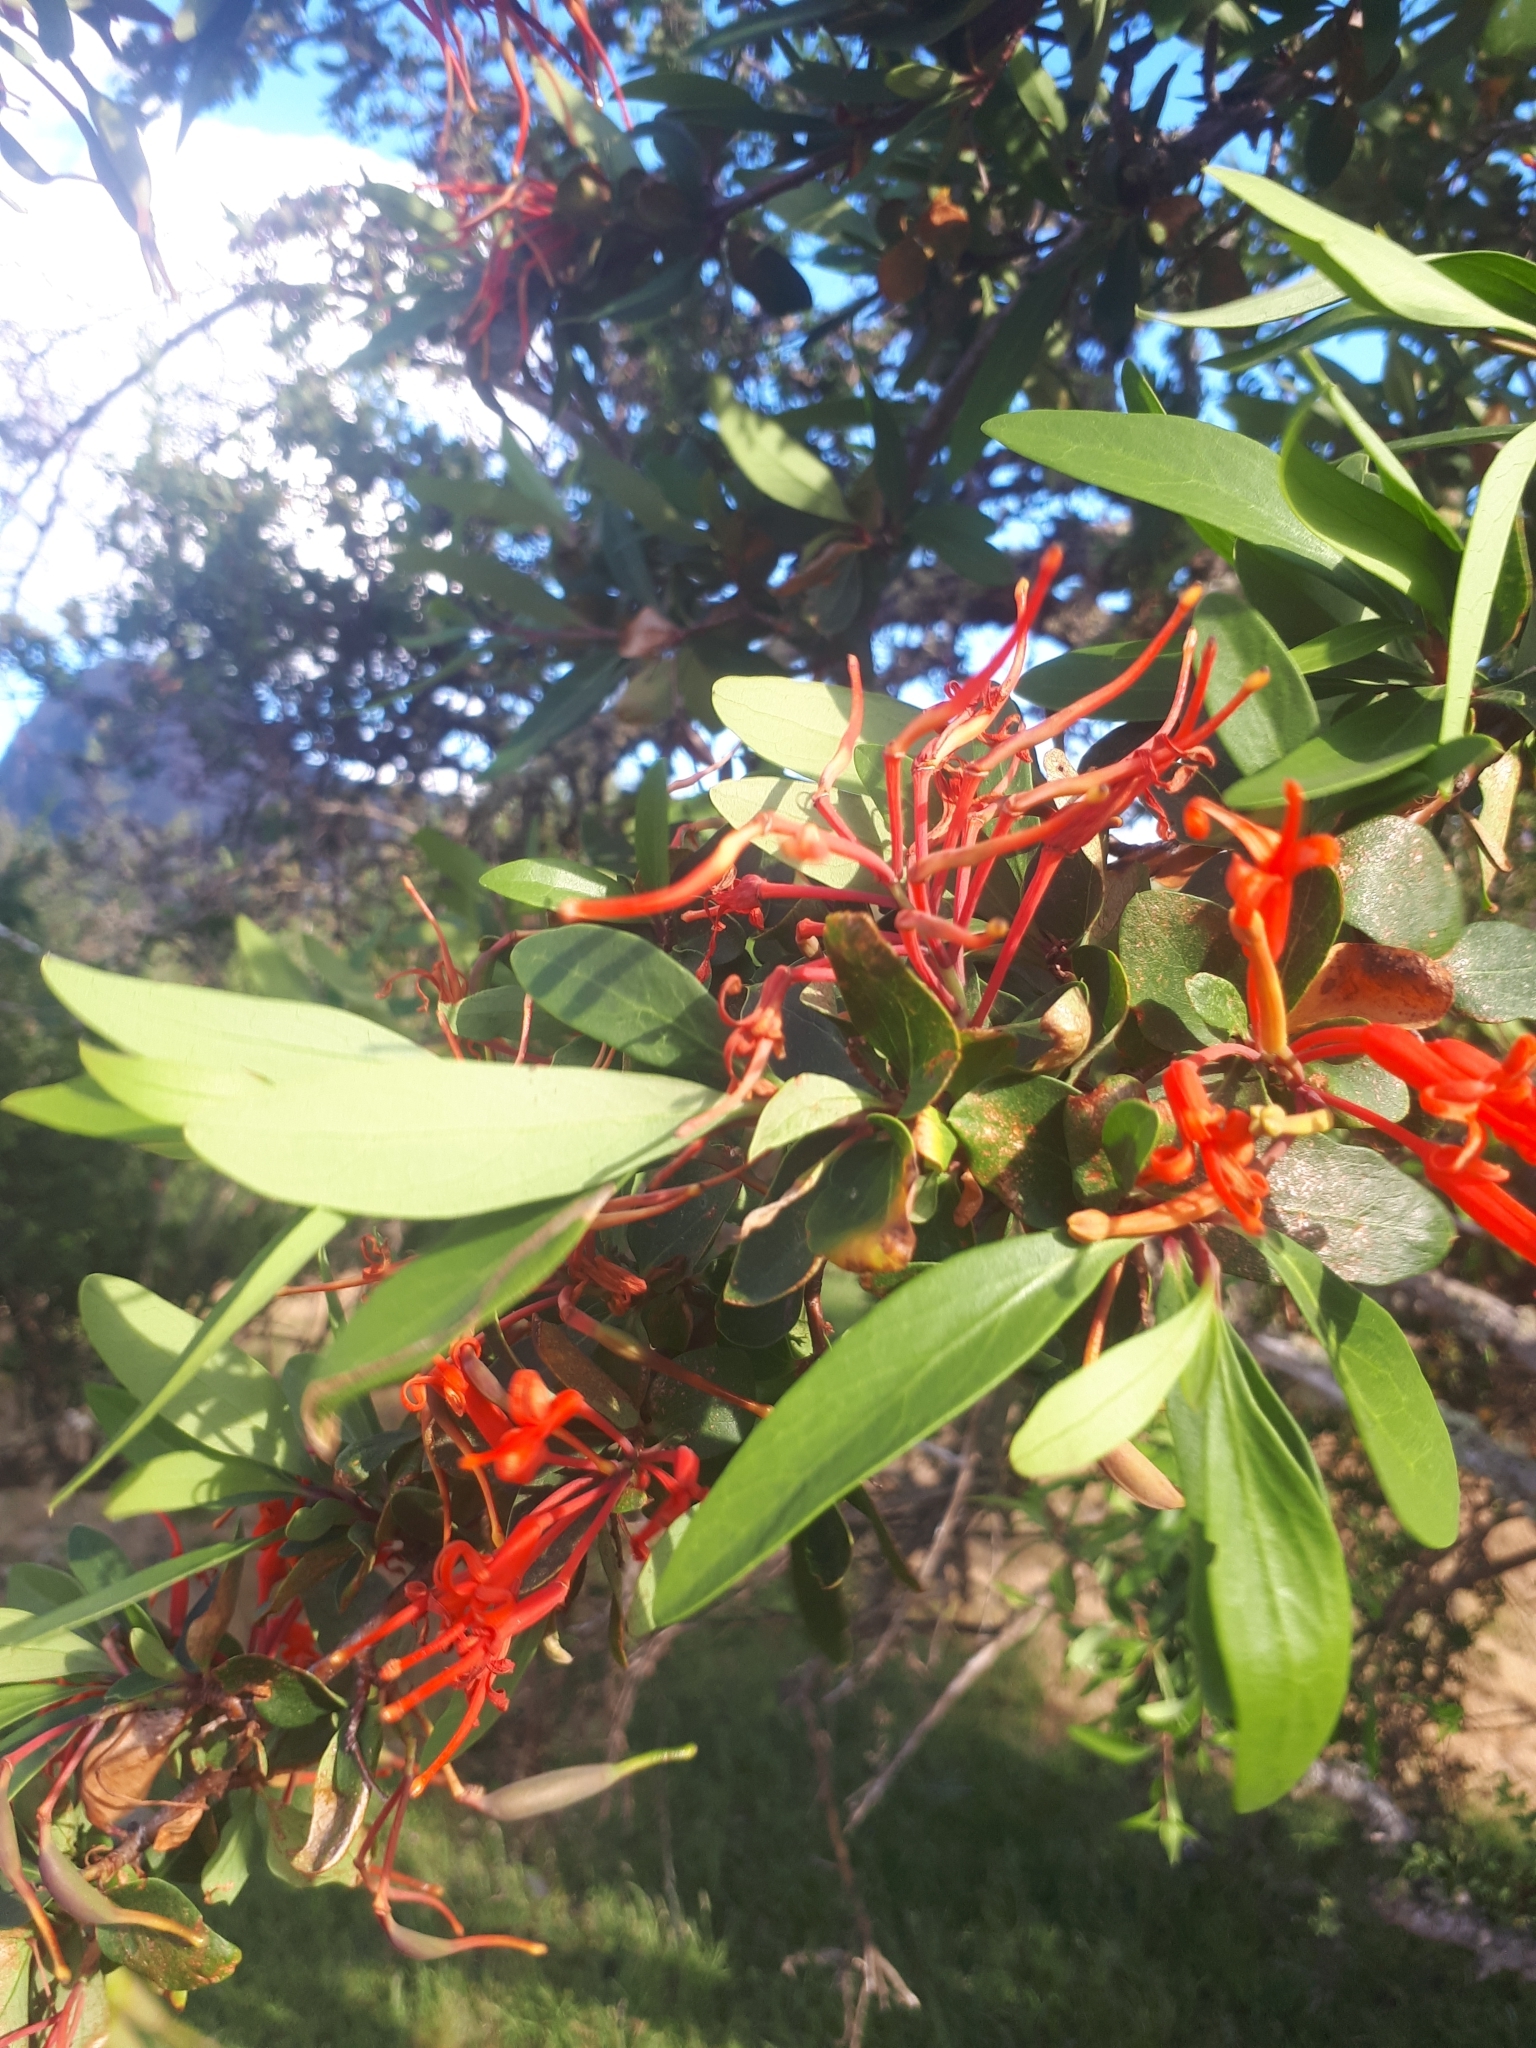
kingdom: Plantae
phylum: Tracheophyta
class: Magnoliopsida
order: Proteales
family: Proteaceae
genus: Embothrium
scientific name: Embothrium coccineum
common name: Chilean firebush
